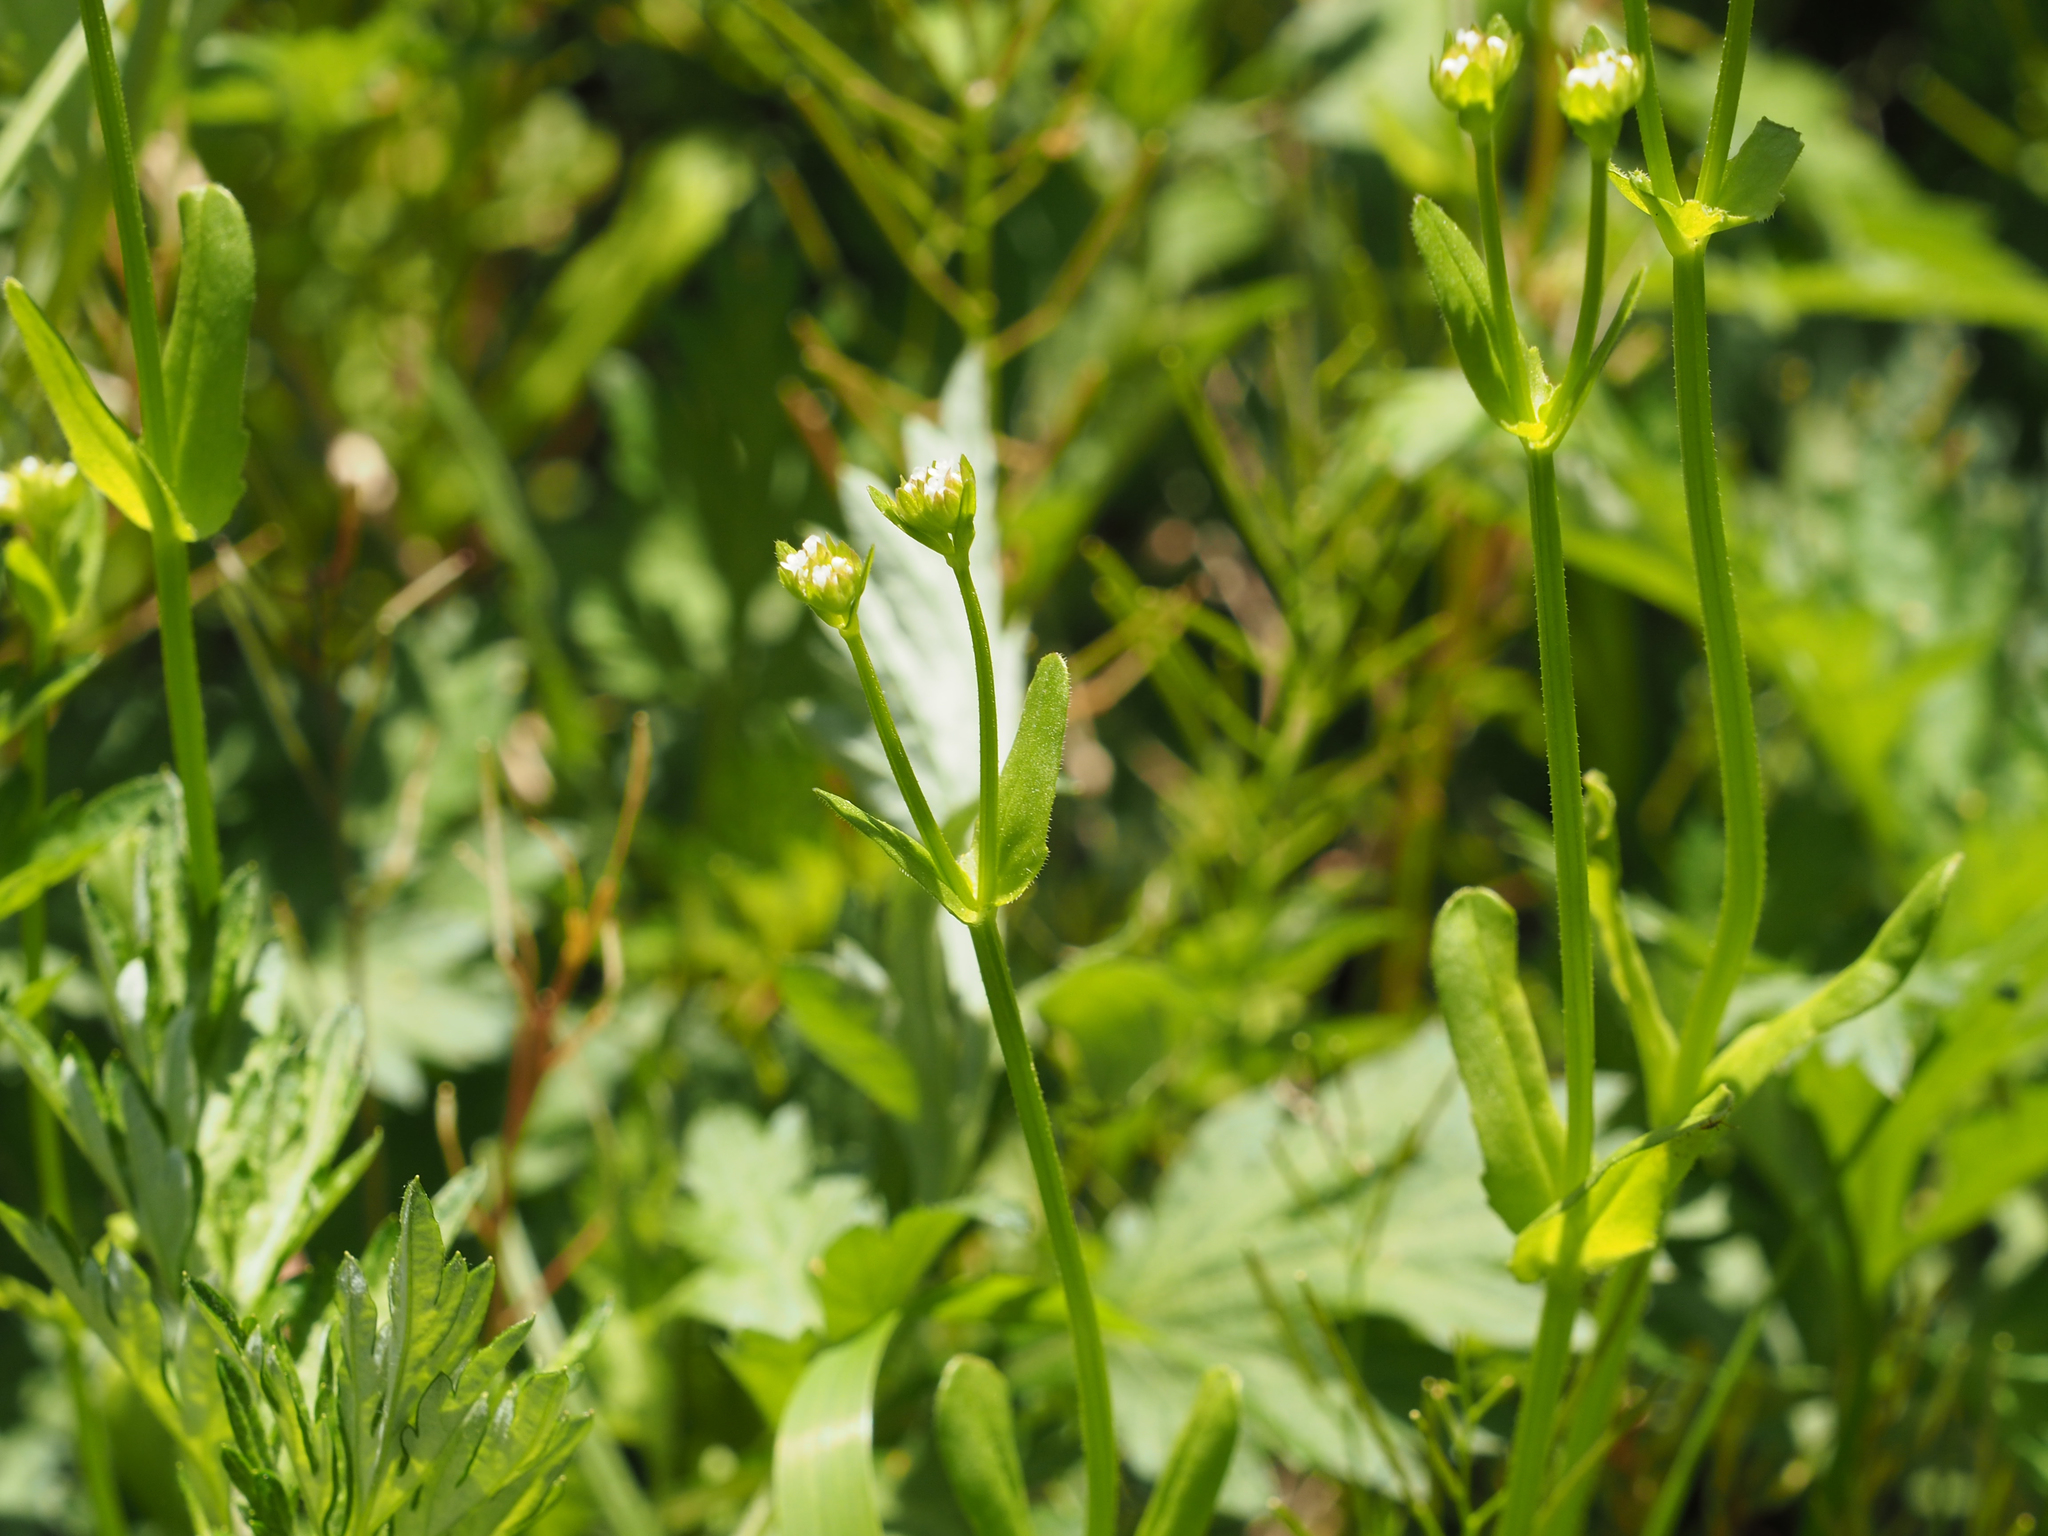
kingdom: Plantae
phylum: Tracheophyta
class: Magnoliopsida
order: Dipsacales
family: Caprifoliaceae
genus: Valerianella
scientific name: Valerianella radiata
